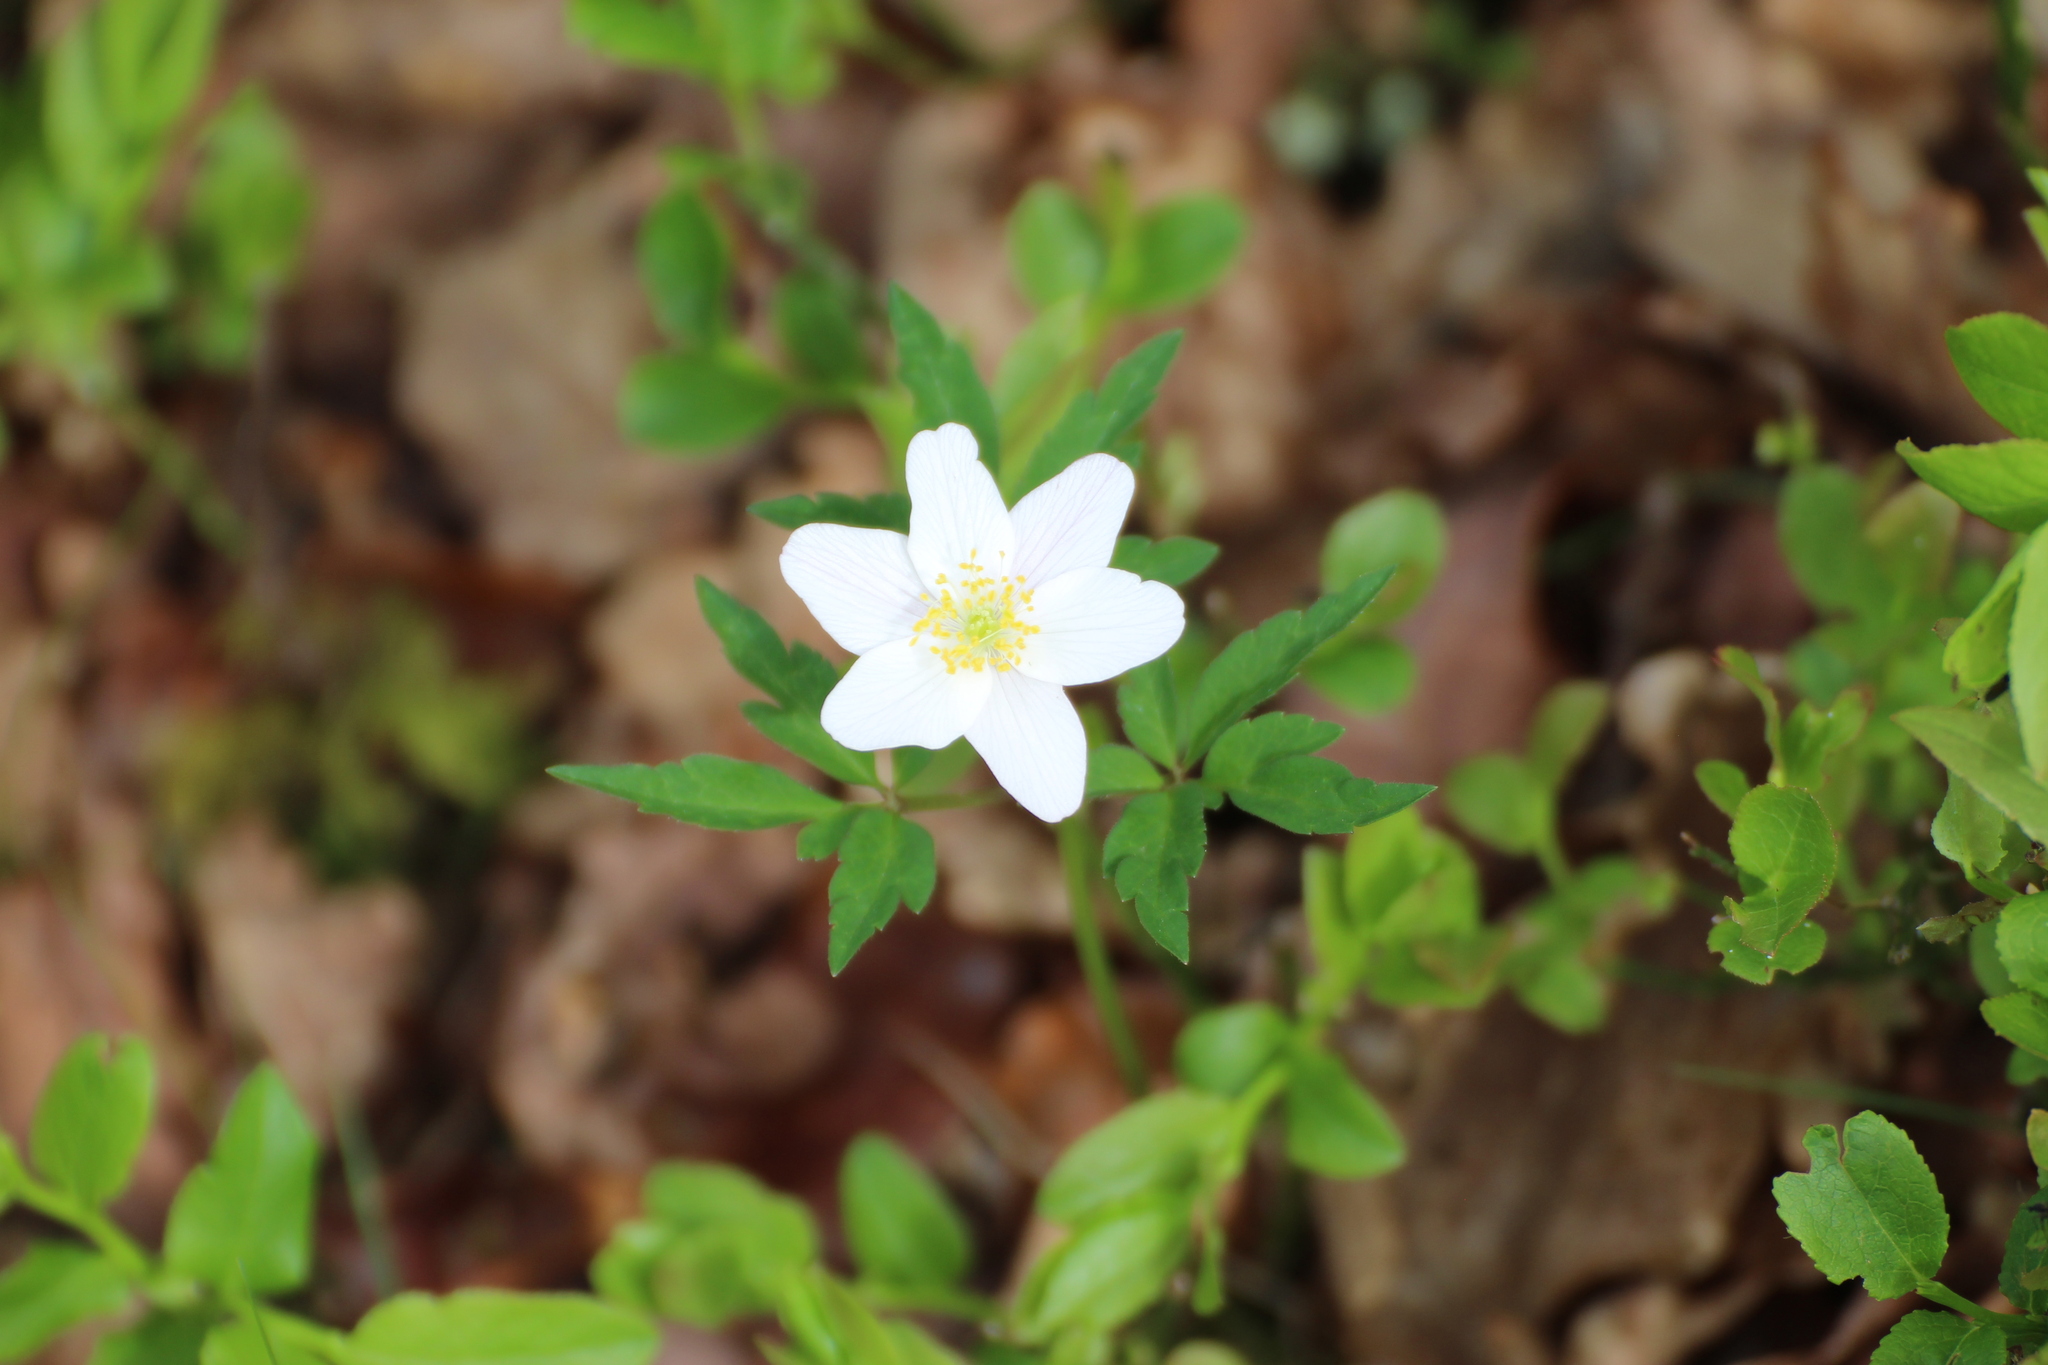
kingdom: Plantae
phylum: Tracheophyta
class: Magnoliopsida
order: Ranunculales
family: Ranunculaceae
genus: Anemone
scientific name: Anemone nemorosa
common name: Wood anemone
